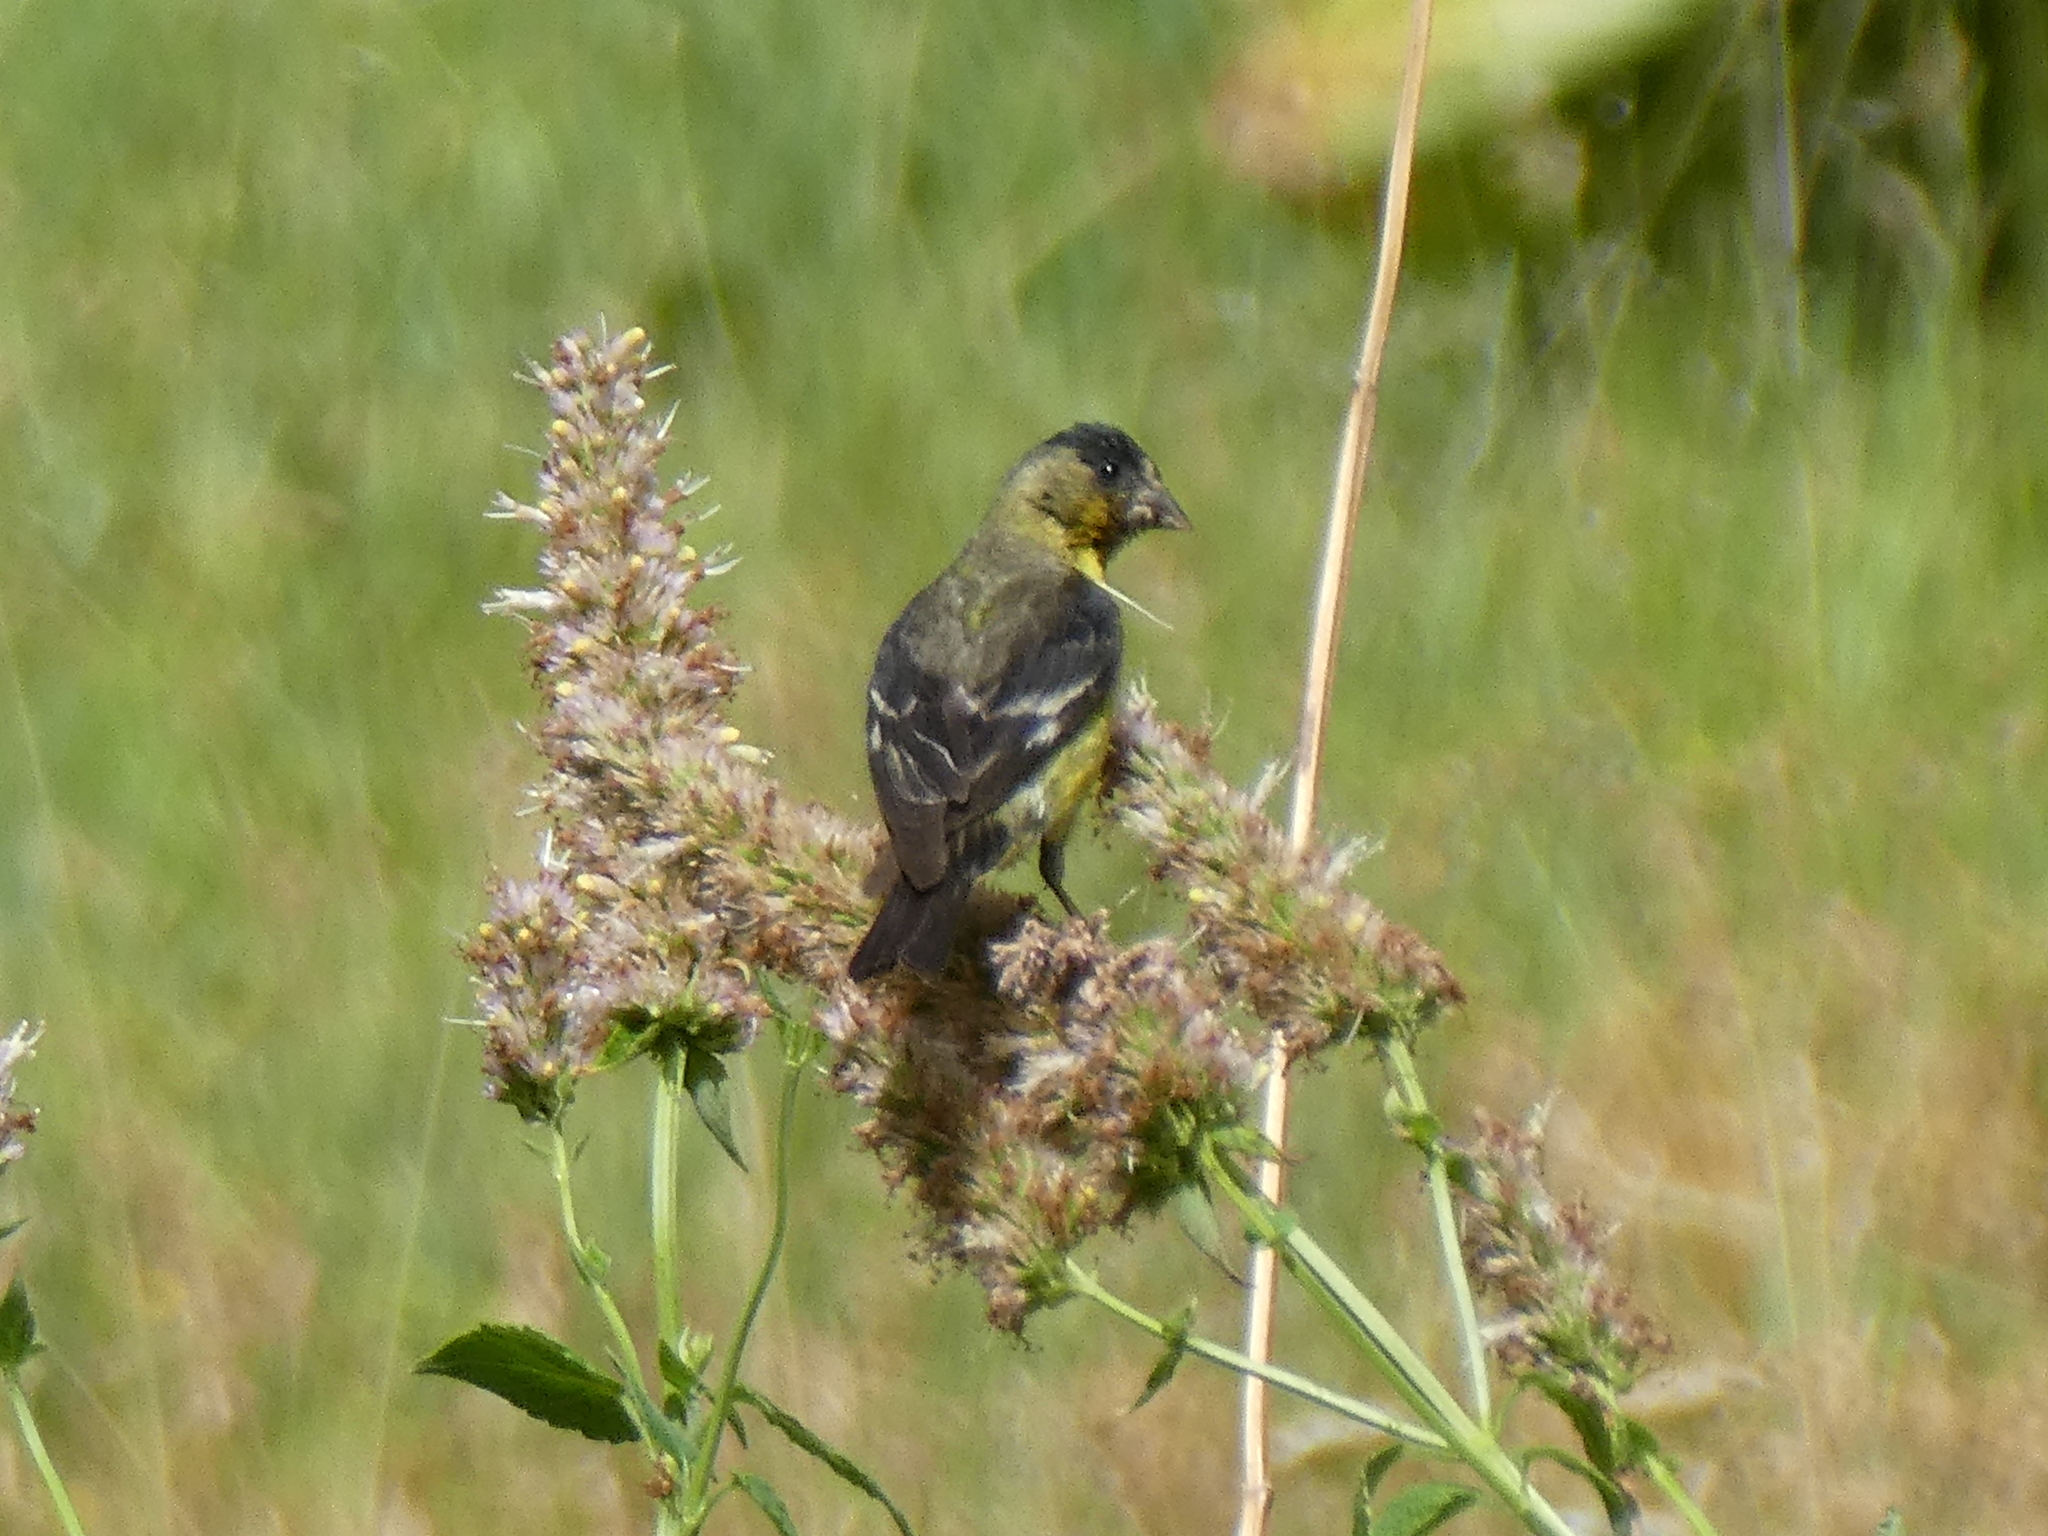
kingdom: Animalia
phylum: Chordata
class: Aves
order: Passeriformes
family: Fringillidae
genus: Spinus
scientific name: Spinus psaltria
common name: Lesser goldfinch
